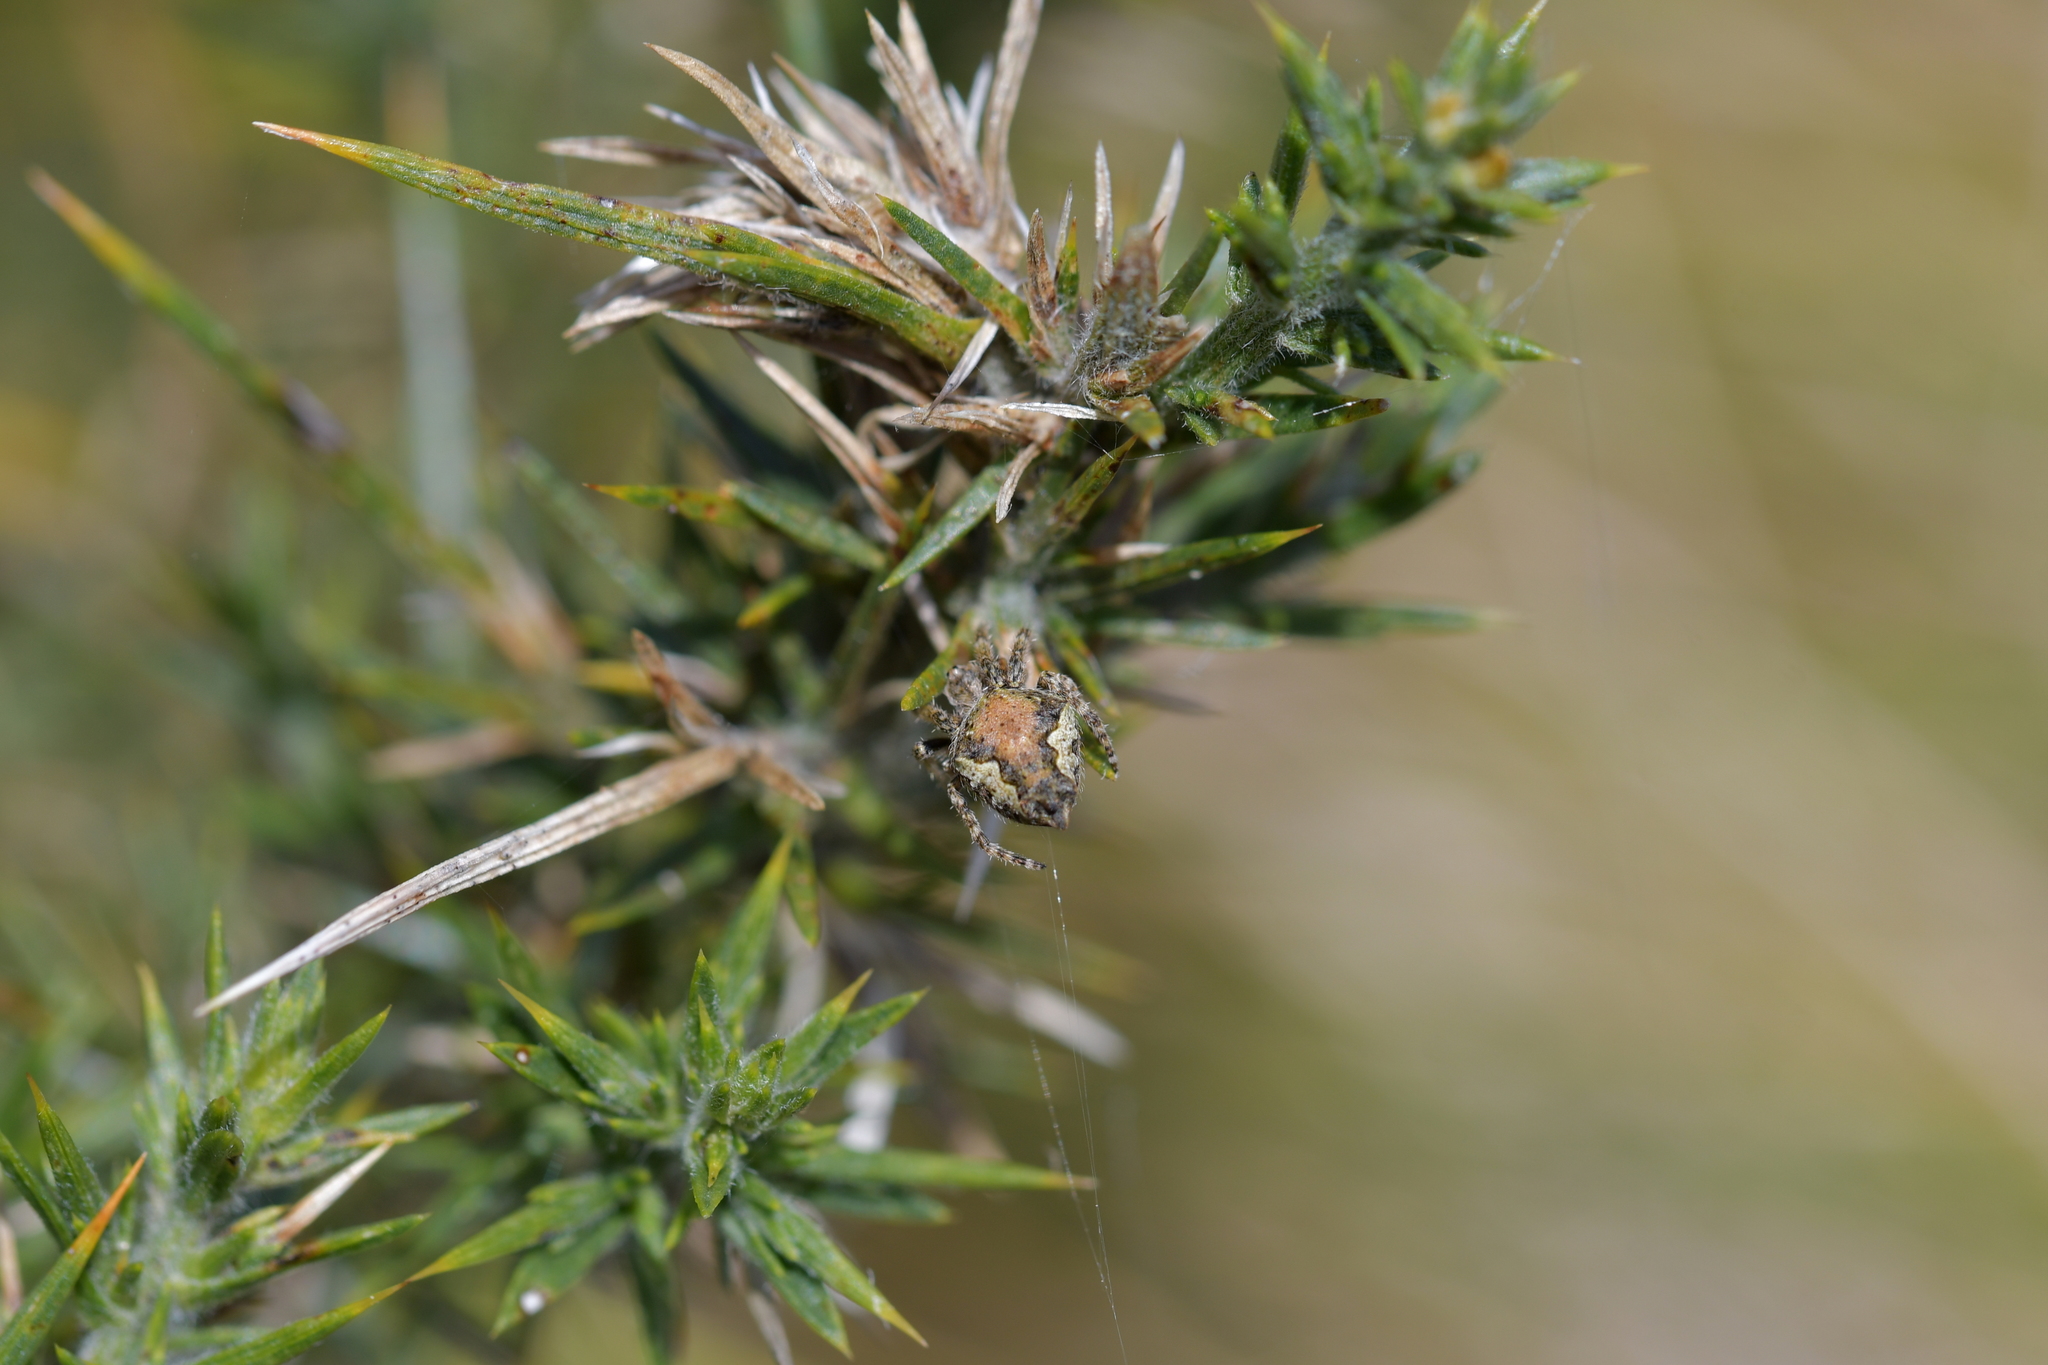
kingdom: Animalia
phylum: Arthropoda
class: Arachnida
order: Araneae
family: Araneidae
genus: Eriophora
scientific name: Eriophora pustulosa
